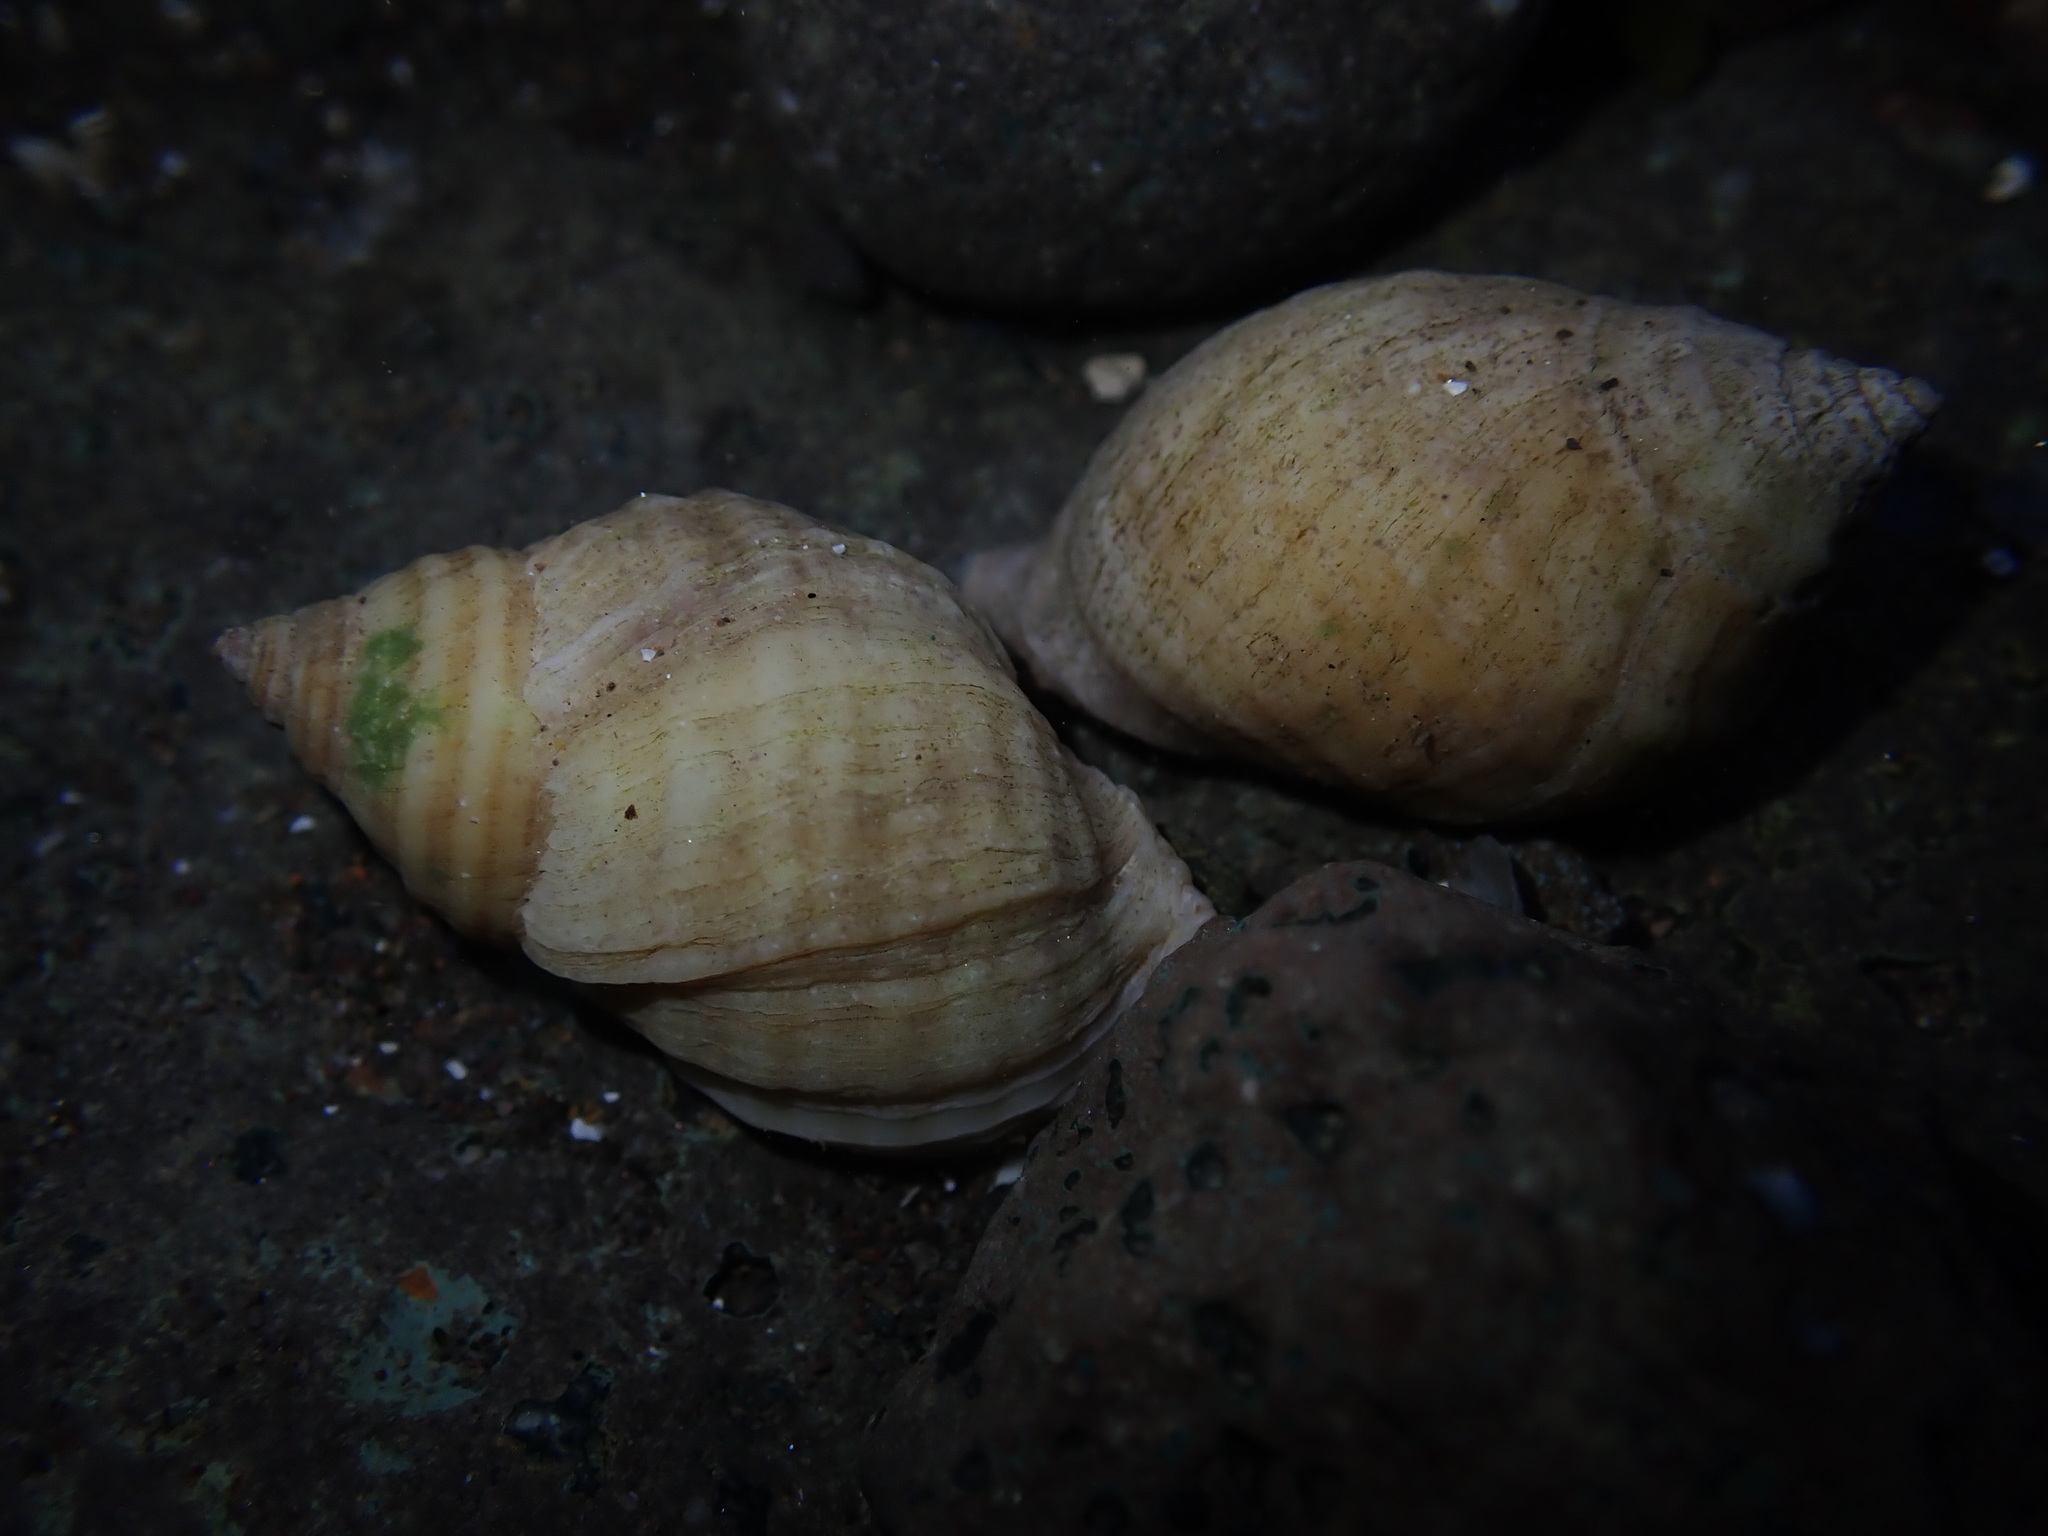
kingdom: Animalia
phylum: Mollusca
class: Gastropoda
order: Neogastropoda
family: Muricidae
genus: Nucella
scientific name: Nucella lapillus
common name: Dog whelk
